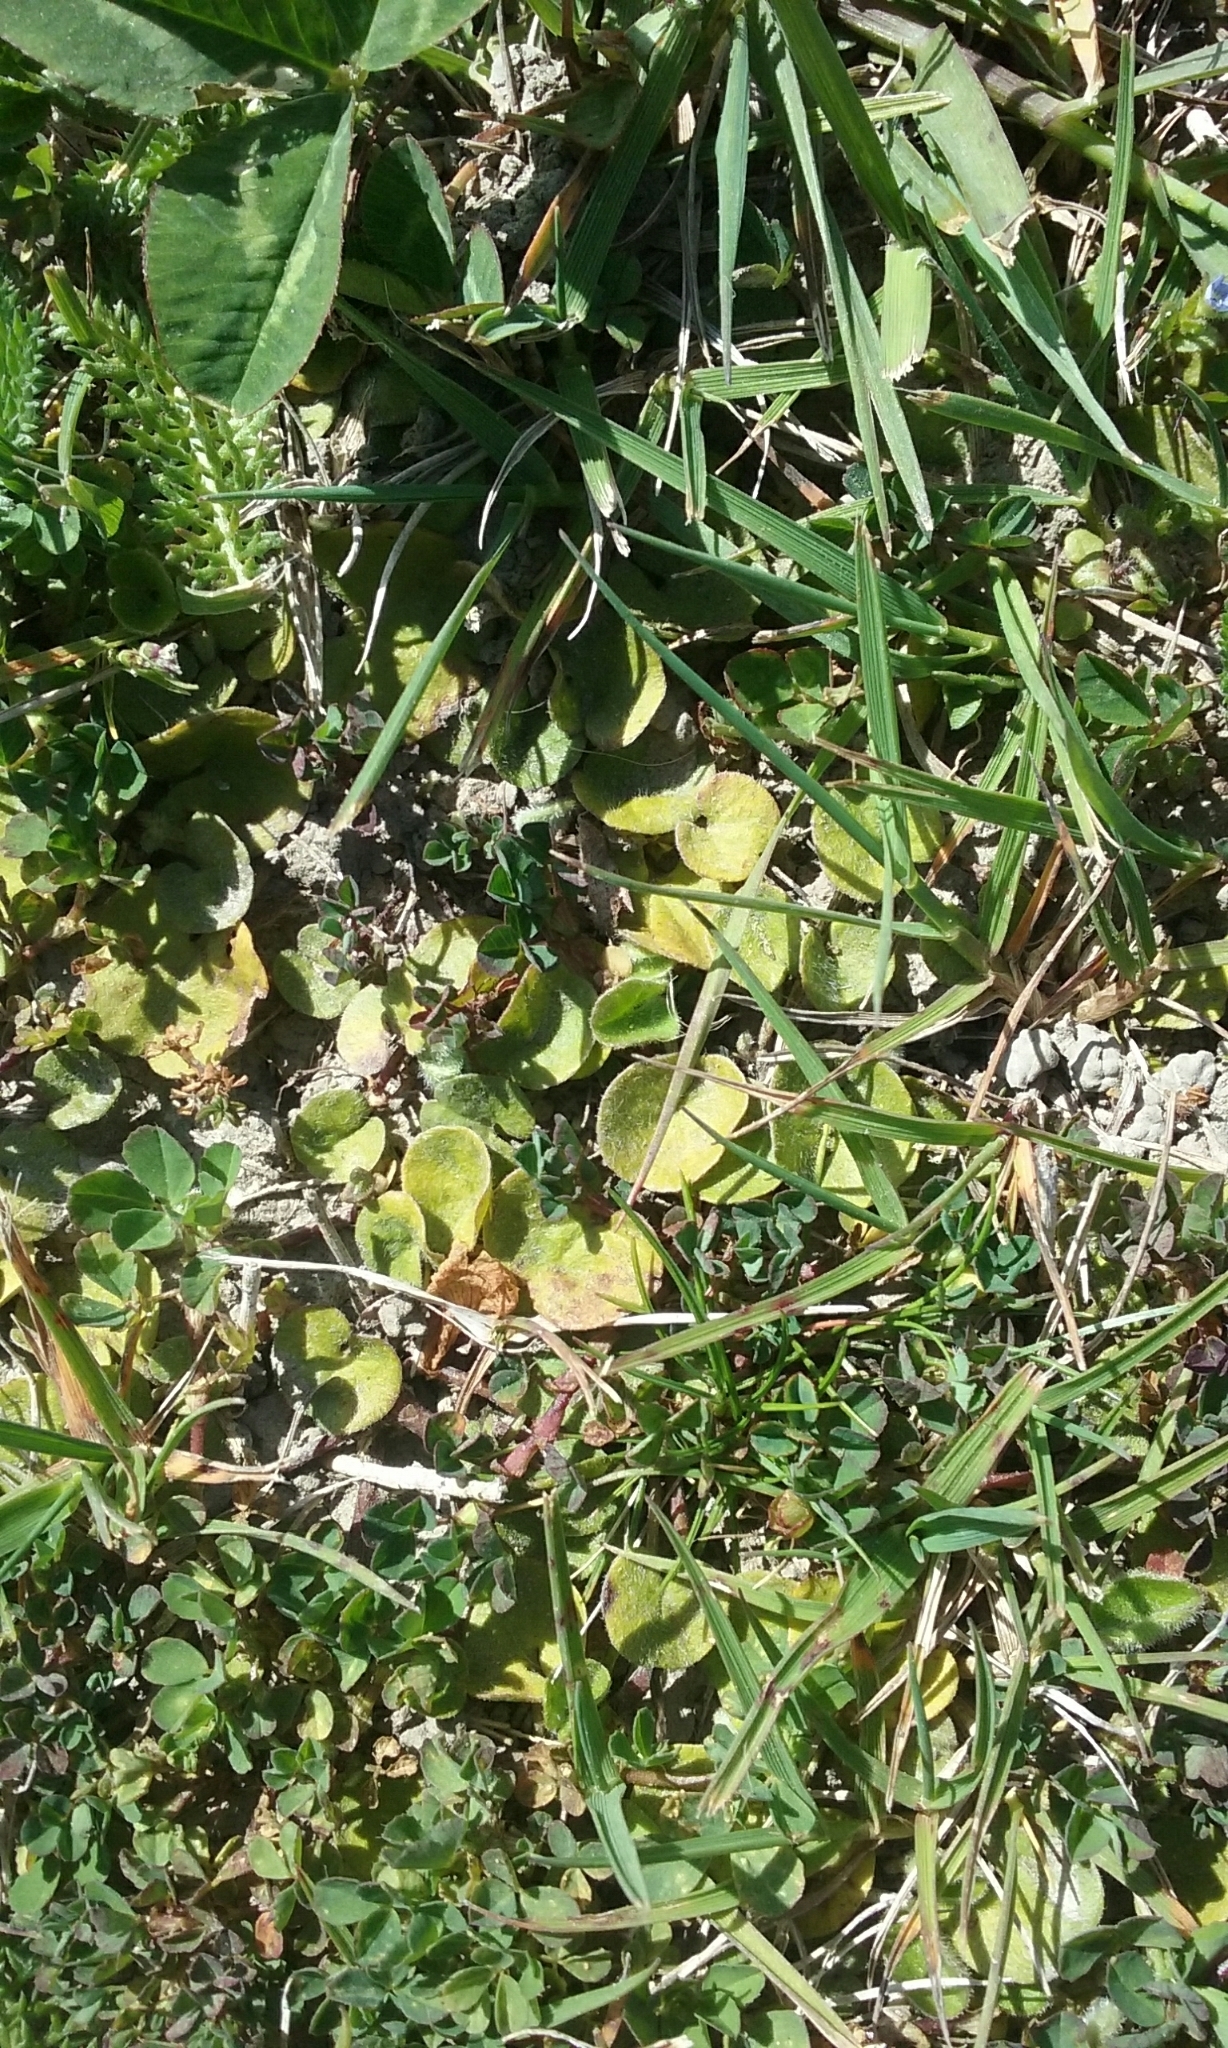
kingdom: Plantae
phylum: Tracheophyta
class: Magnoliopsida
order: Solanales
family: Convolvulaceae
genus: Dichondra
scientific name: Dichondra repens
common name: Kidneyweed
